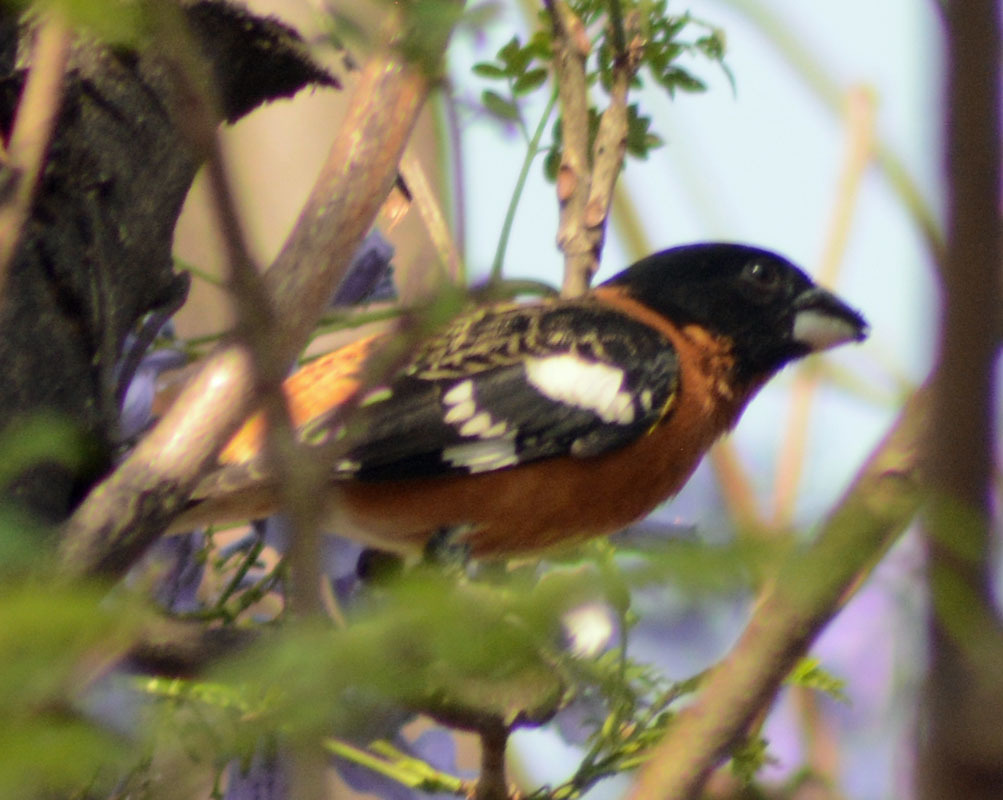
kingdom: Animalia
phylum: Chordata
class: Aves
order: Passeriformes
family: Cardinalidae
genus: Pheucticus
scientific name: Pheucticus melanocephalus
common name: Black-headed grosbeak
